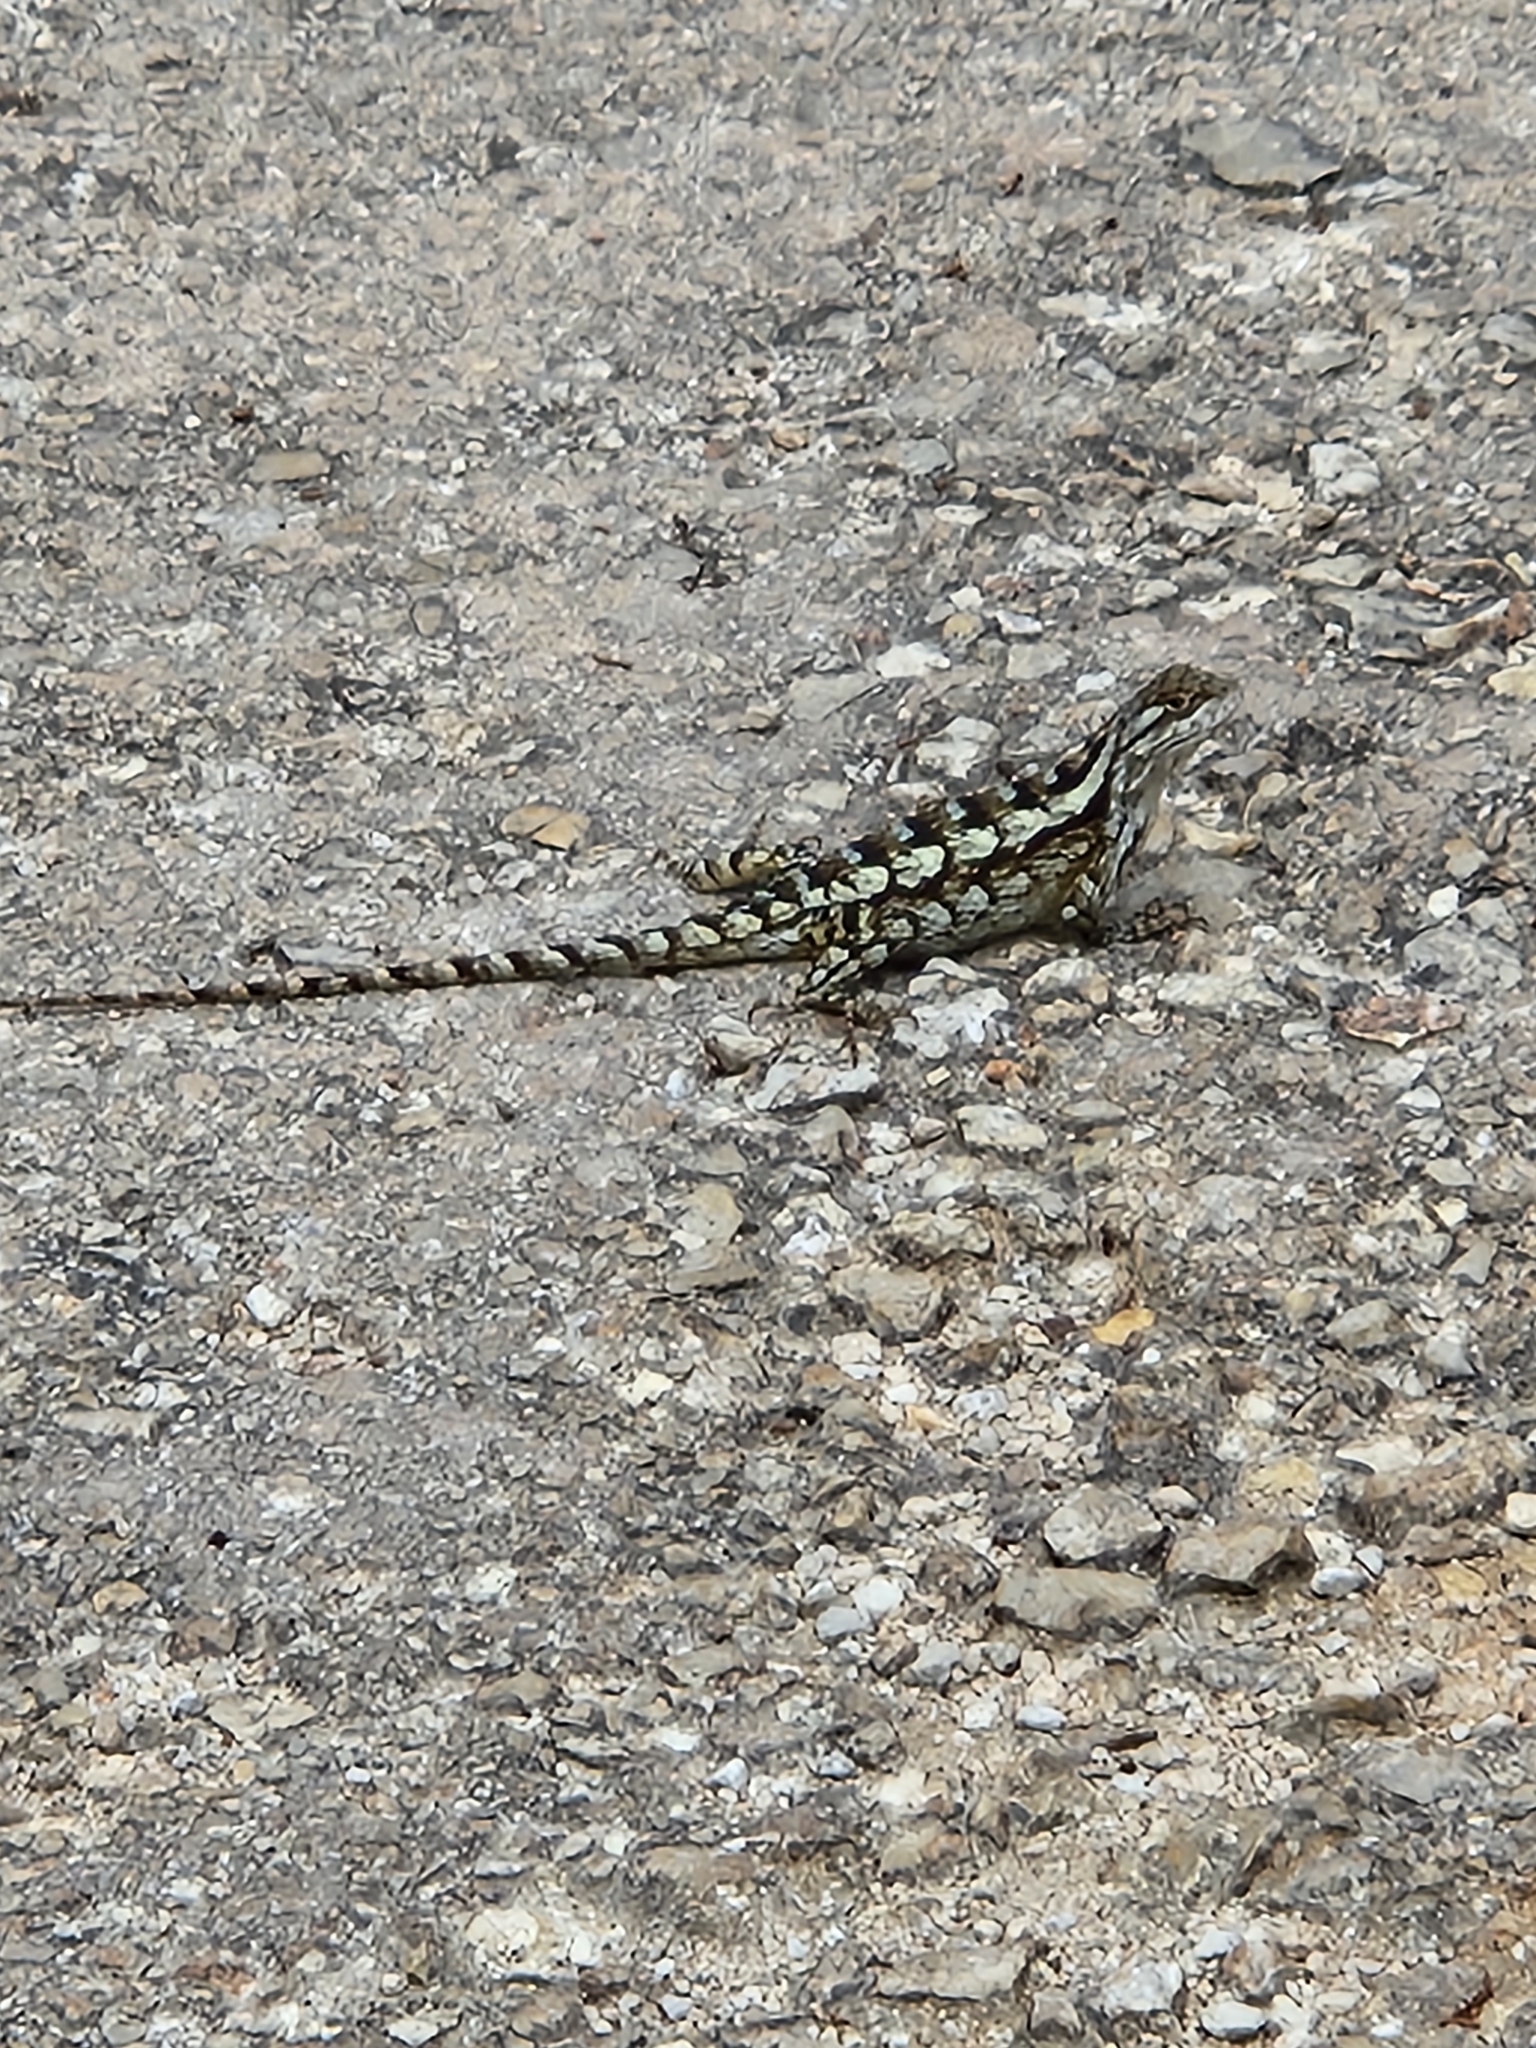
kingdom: Animalia
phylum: Chordata
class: Squamata
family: Phrynosomatidae
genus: Sceloporus
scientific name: Sceloporus olivaceus
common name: Texas spiny lizard
